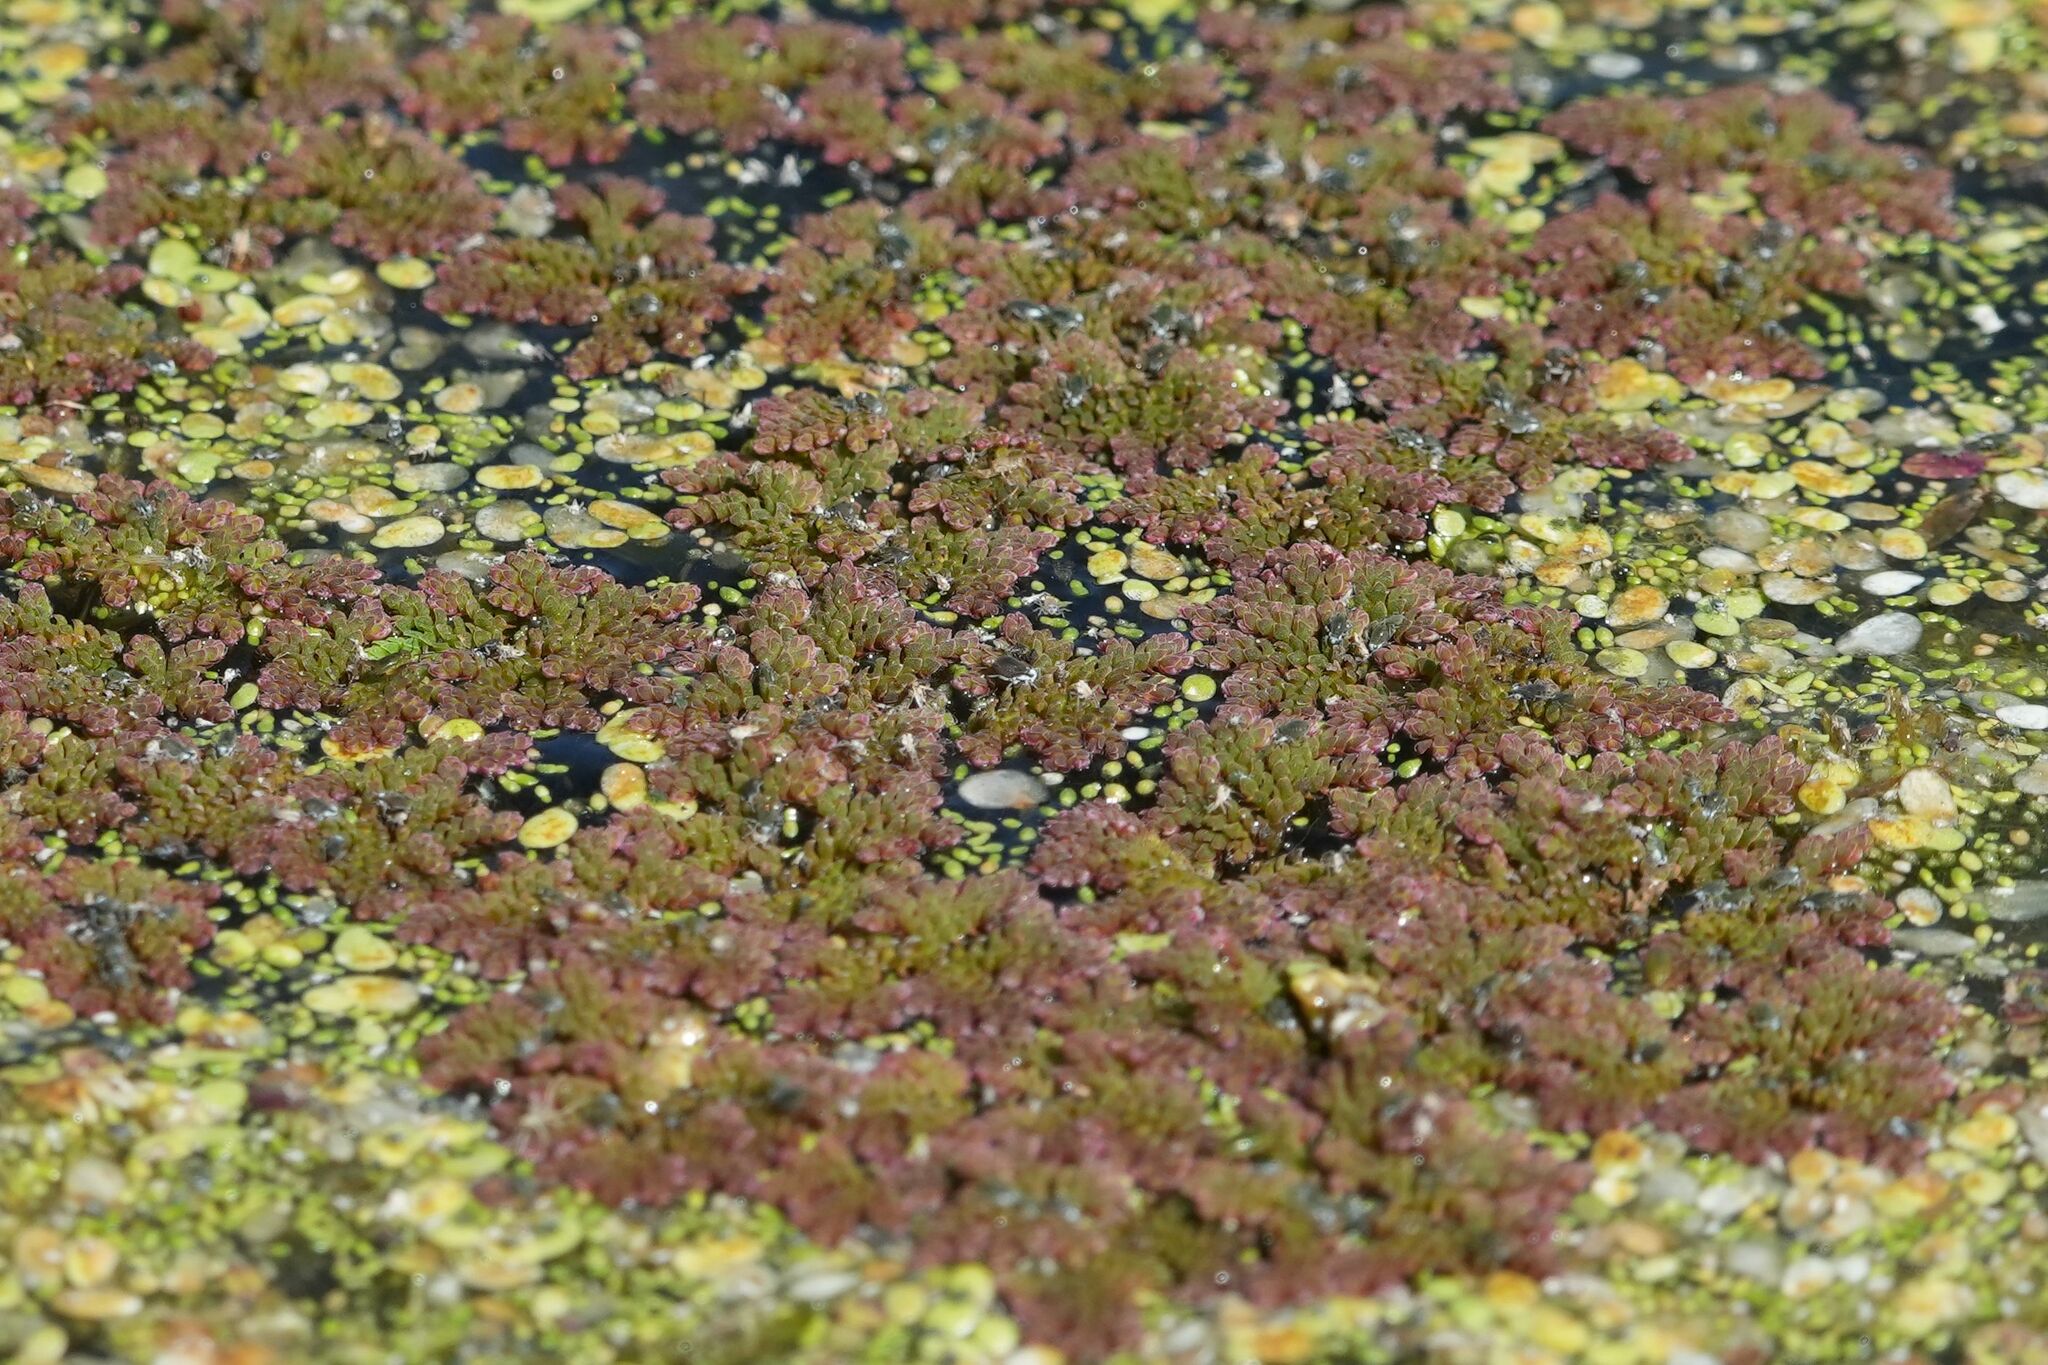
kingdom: Plantae
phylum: Tracheophyta
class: Polypodiopsida
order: Salviniales
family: Salviniaceae
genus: Azolla
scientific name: Azolla caroliniana
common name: Carolina mosquitofern
